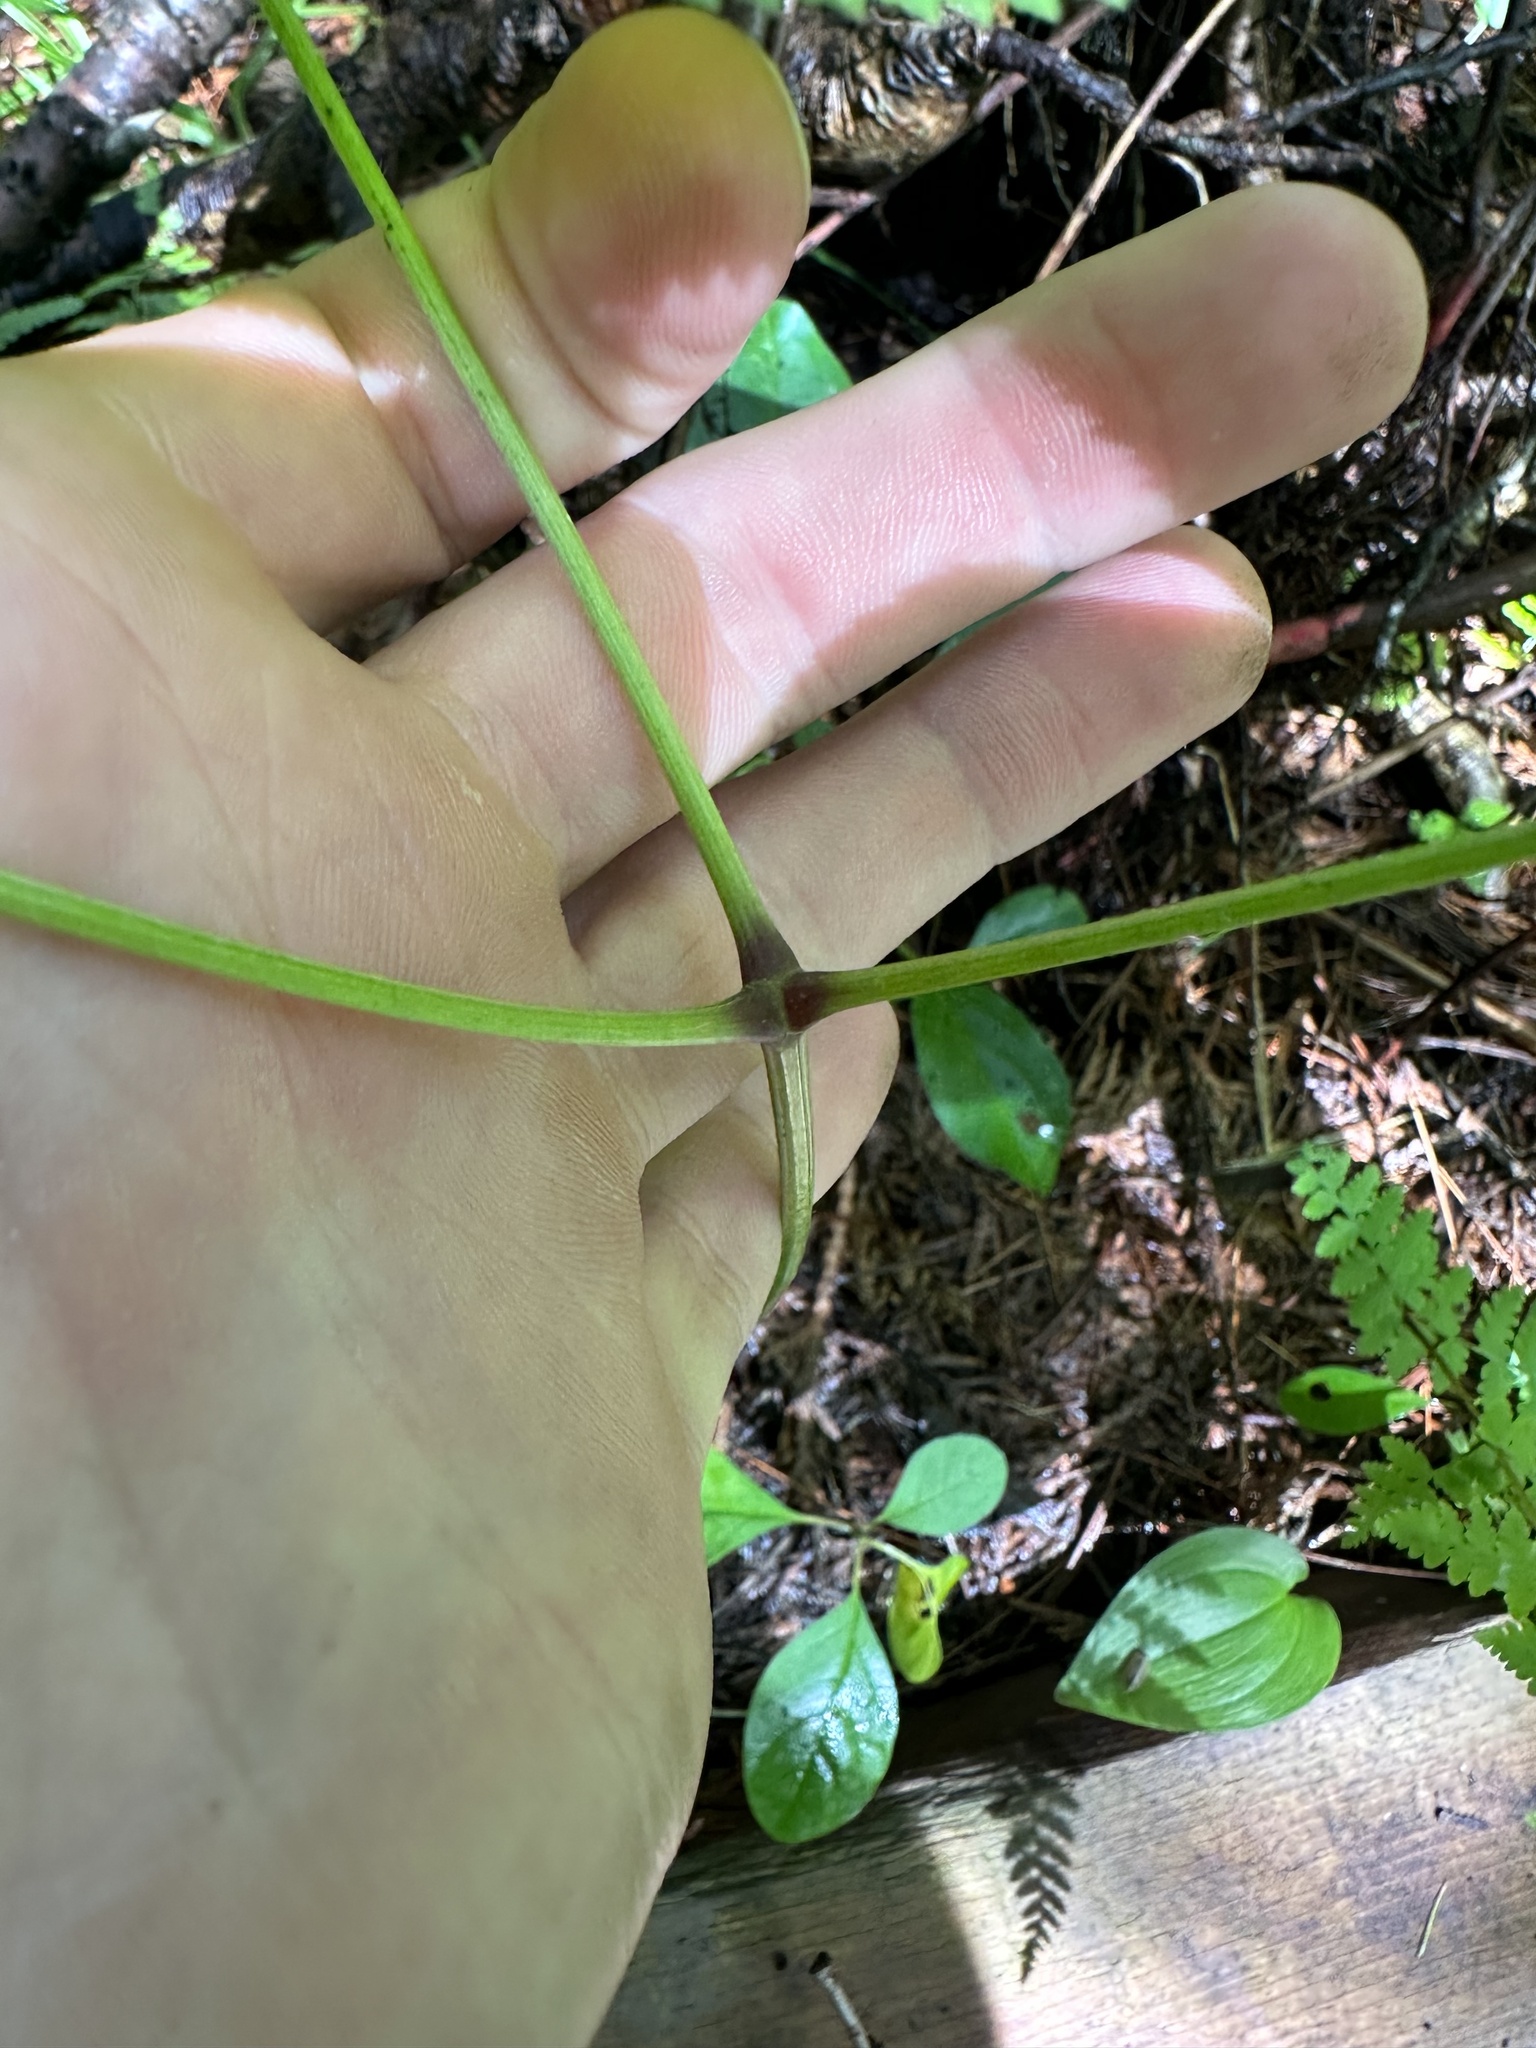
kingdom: Plantae
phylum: Tracheophyta
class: Magnoliopsida
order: Apiales
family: Araliaceae
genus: Aralia
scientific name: Aralia nudicaulis
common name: Wild sarsaparilla
